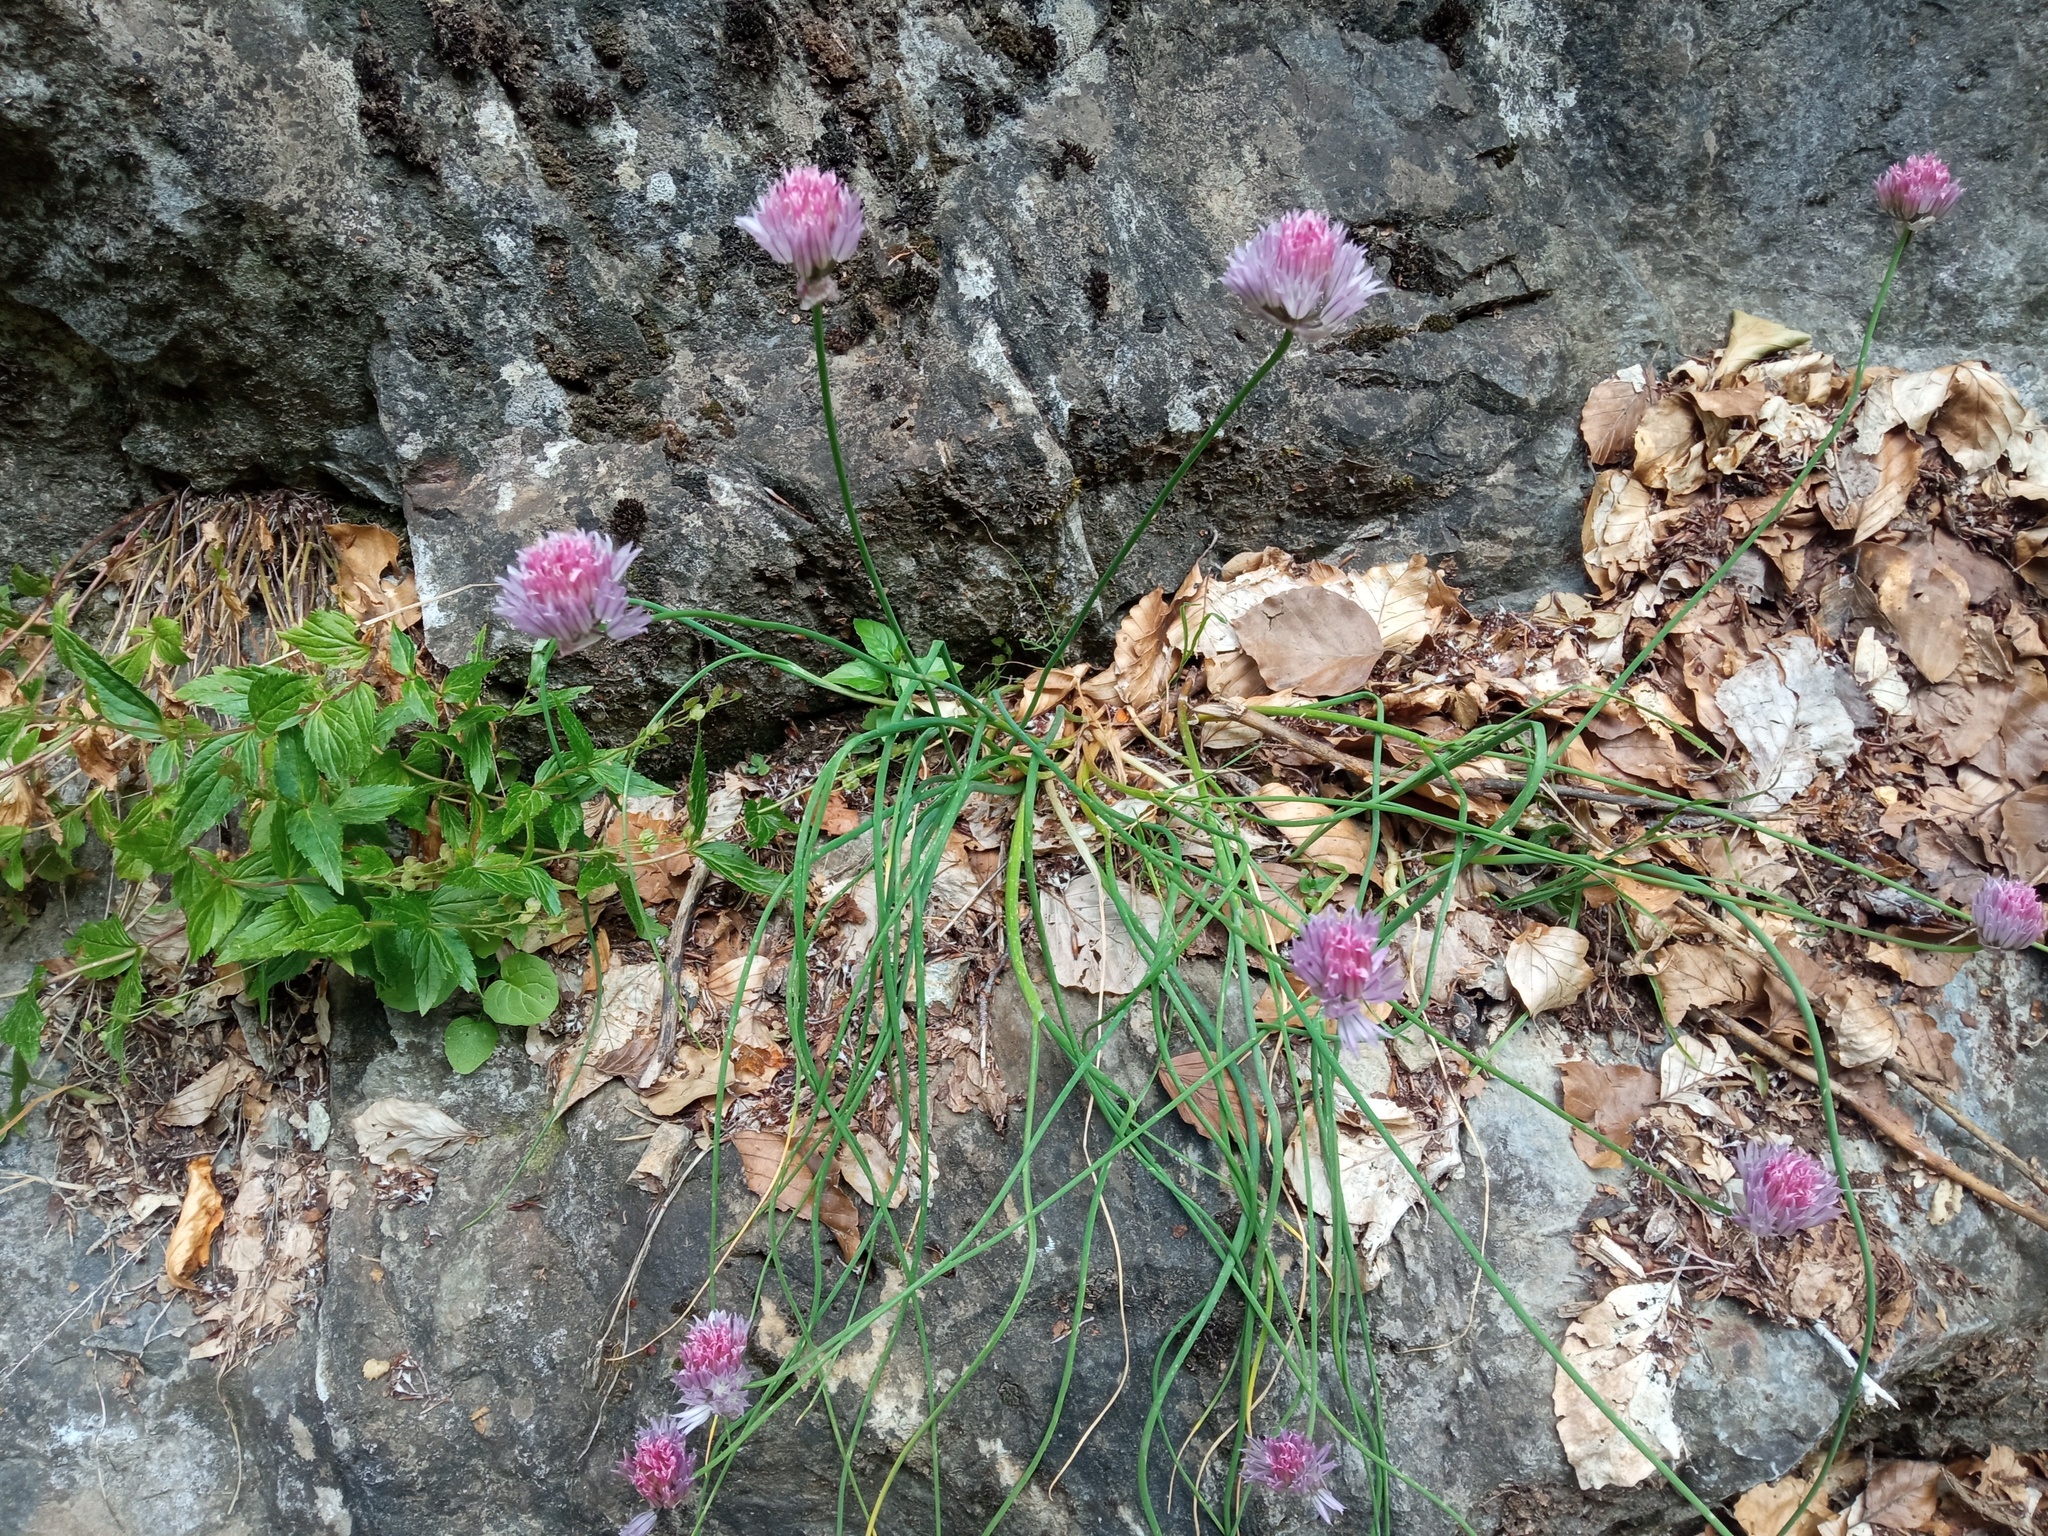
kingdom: Plantae
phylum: Tracheophyta
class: Liliopsida
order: Asparagales
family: Amaryllidaceae
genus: Allium
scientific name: Allium schoenoprasum
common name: Chives
